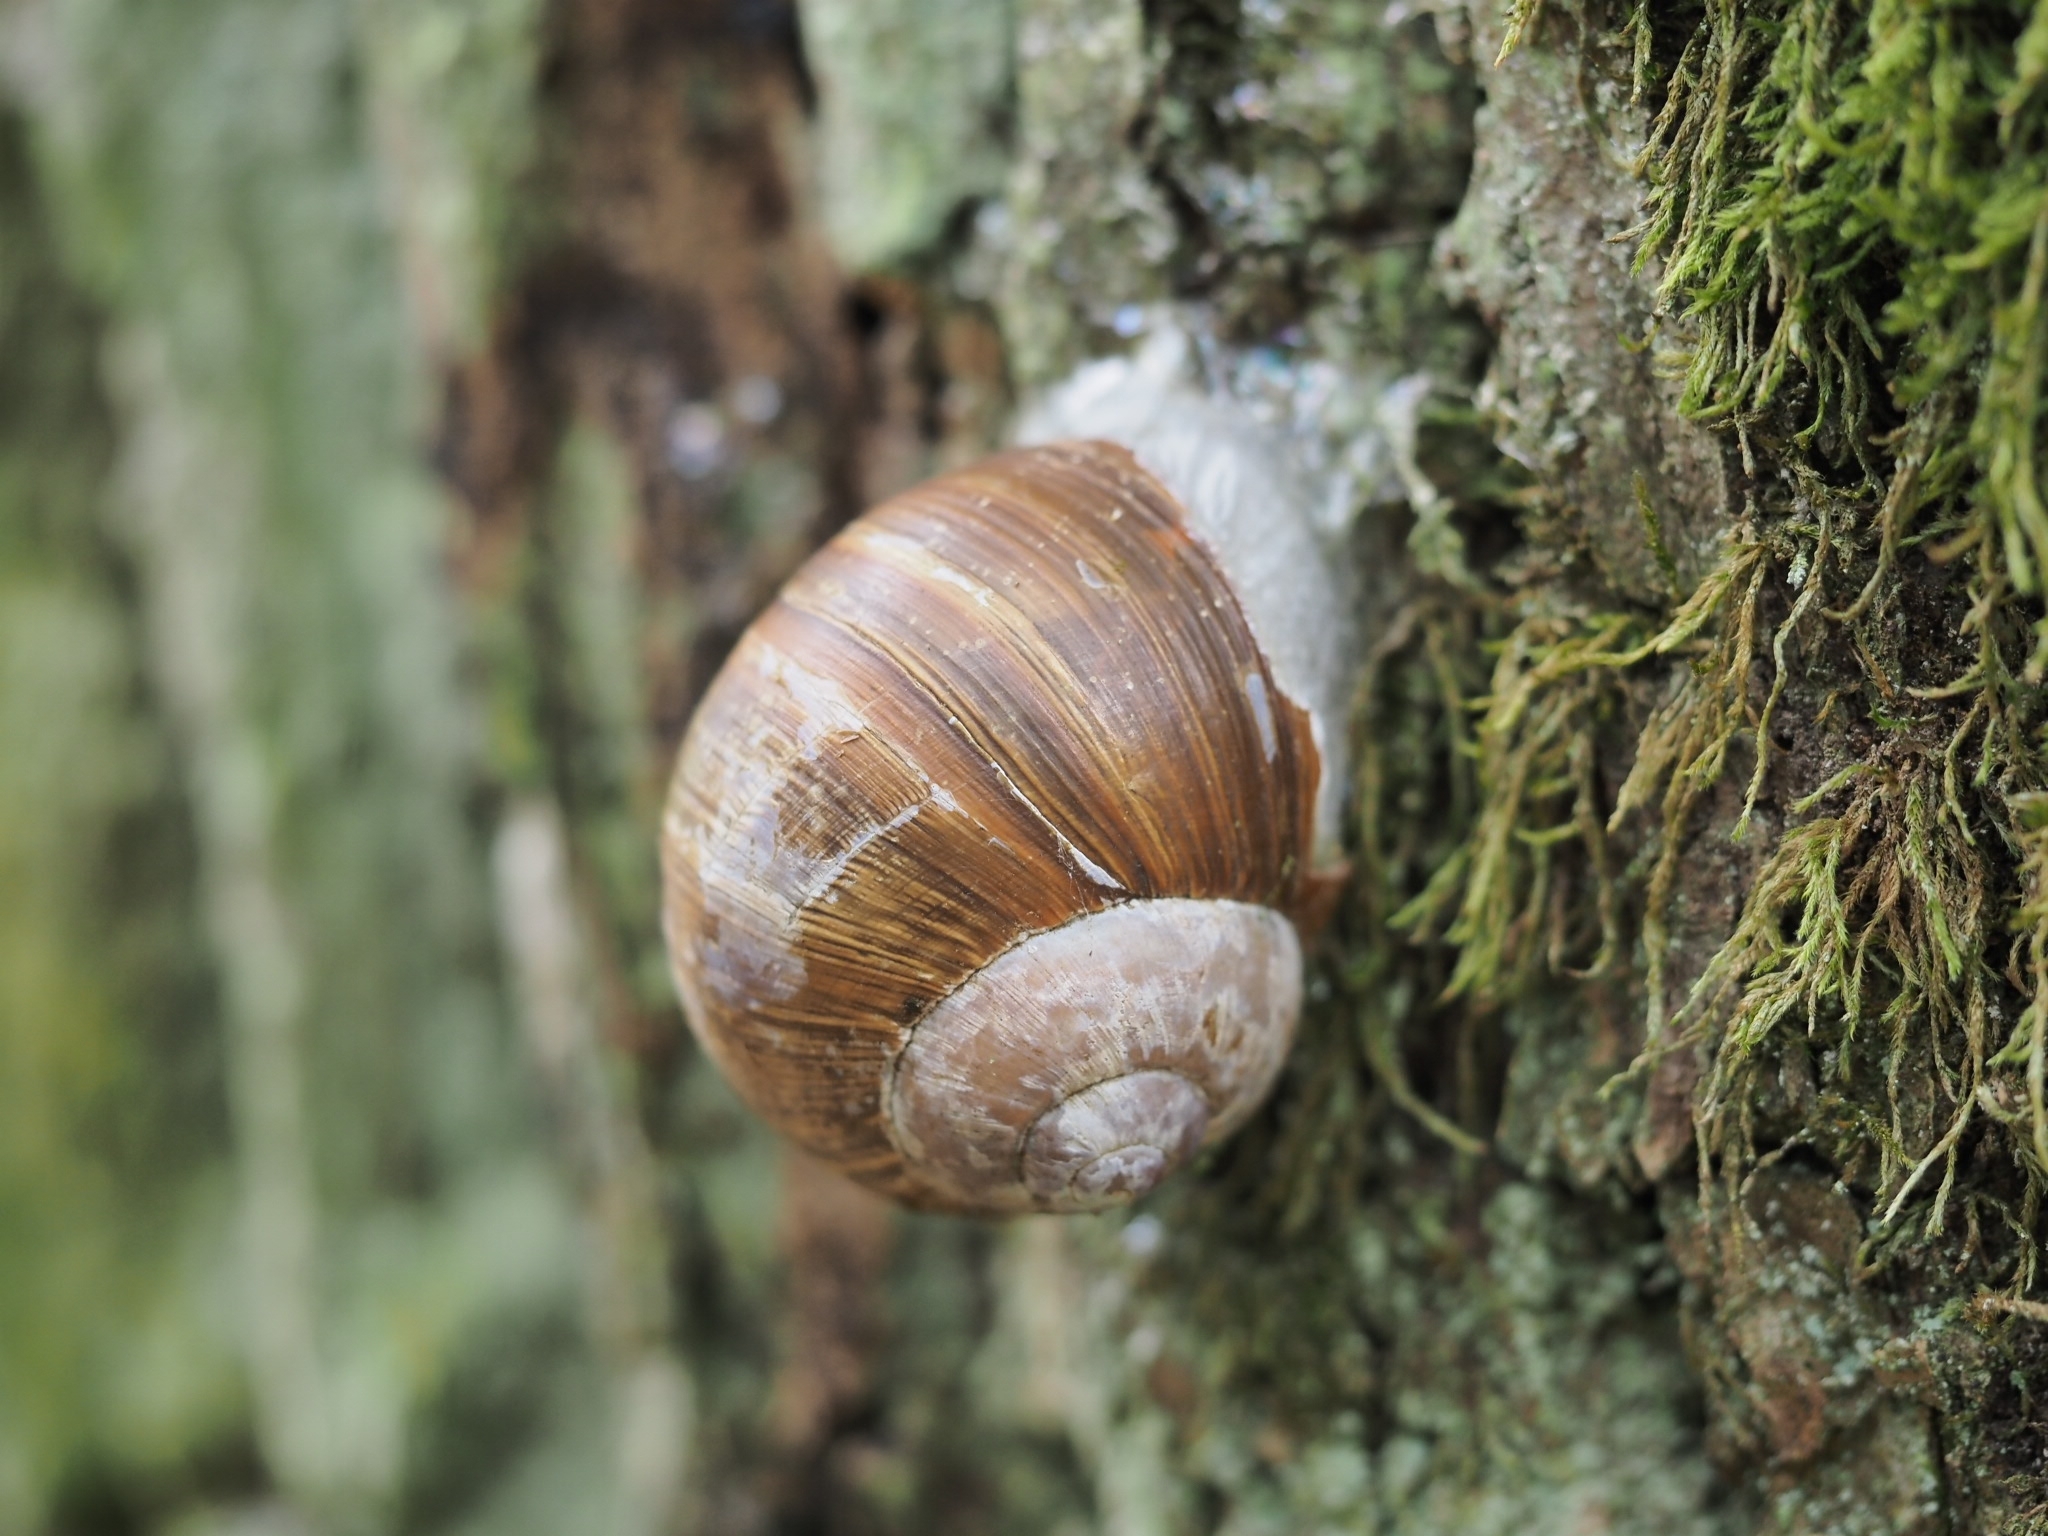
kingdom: Animalia
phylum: Mollusca
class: Gastropoda
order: Stylommatophora
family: Helicidae
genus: Helix
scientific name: Helix pomatia
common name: Roman snail
